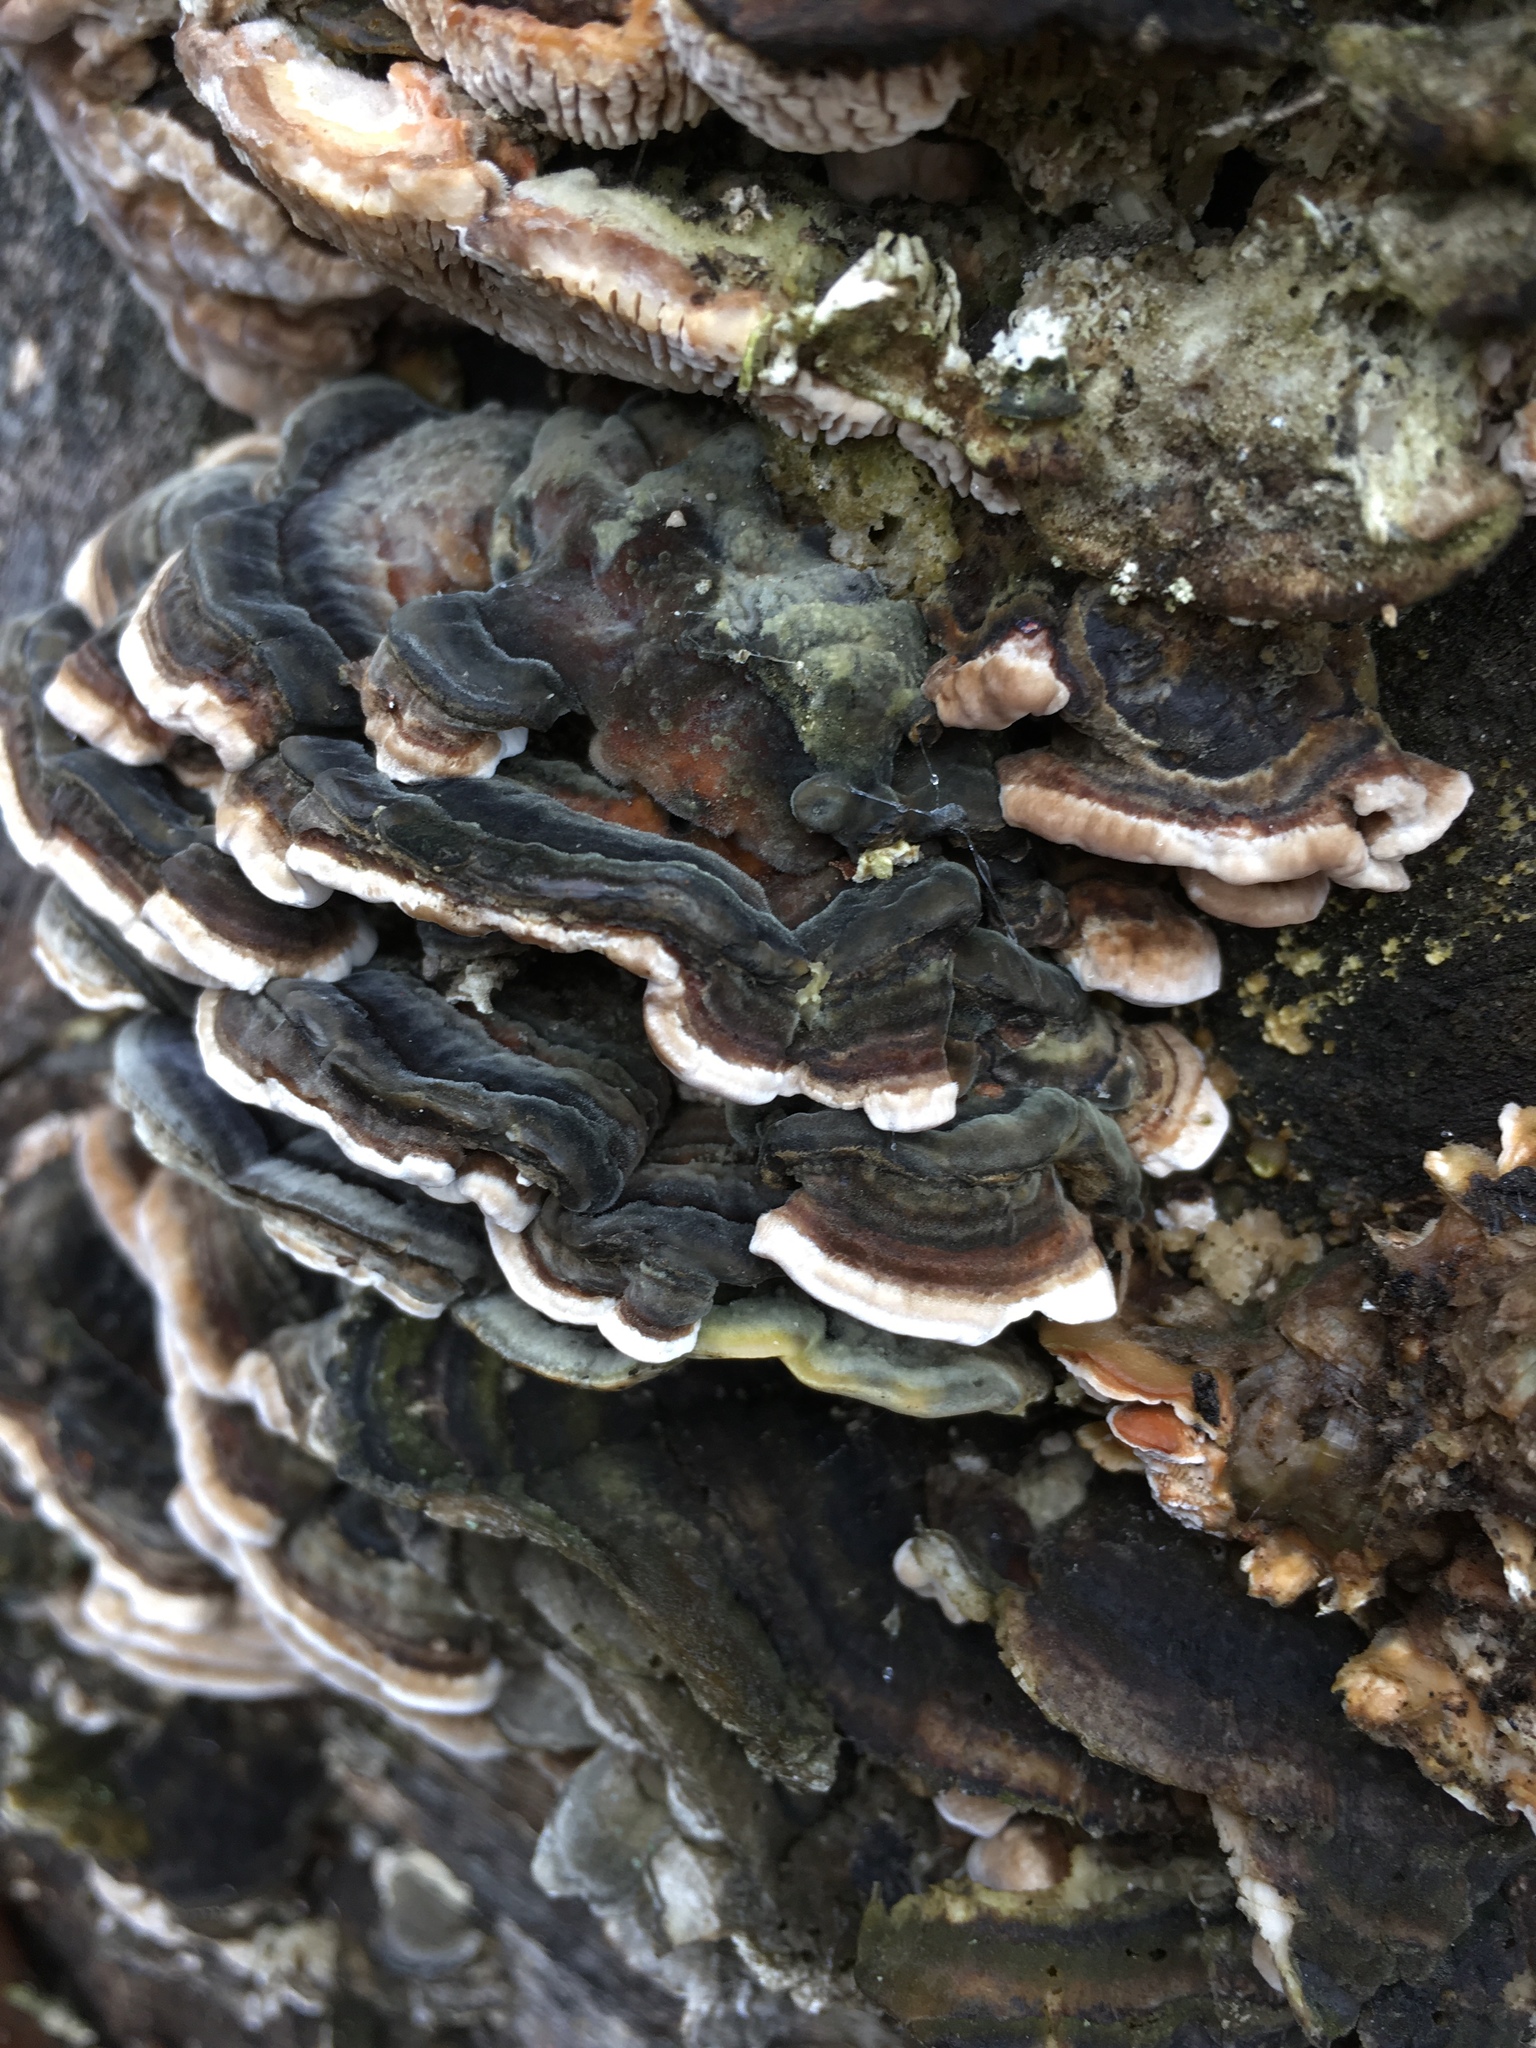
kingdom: Fungi
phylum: Basidiomycota
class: Agaricomycetes
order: Polyporales
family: Polyporaceae
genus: Trametes
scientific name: Trametes versicolor
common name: Turkeytail
